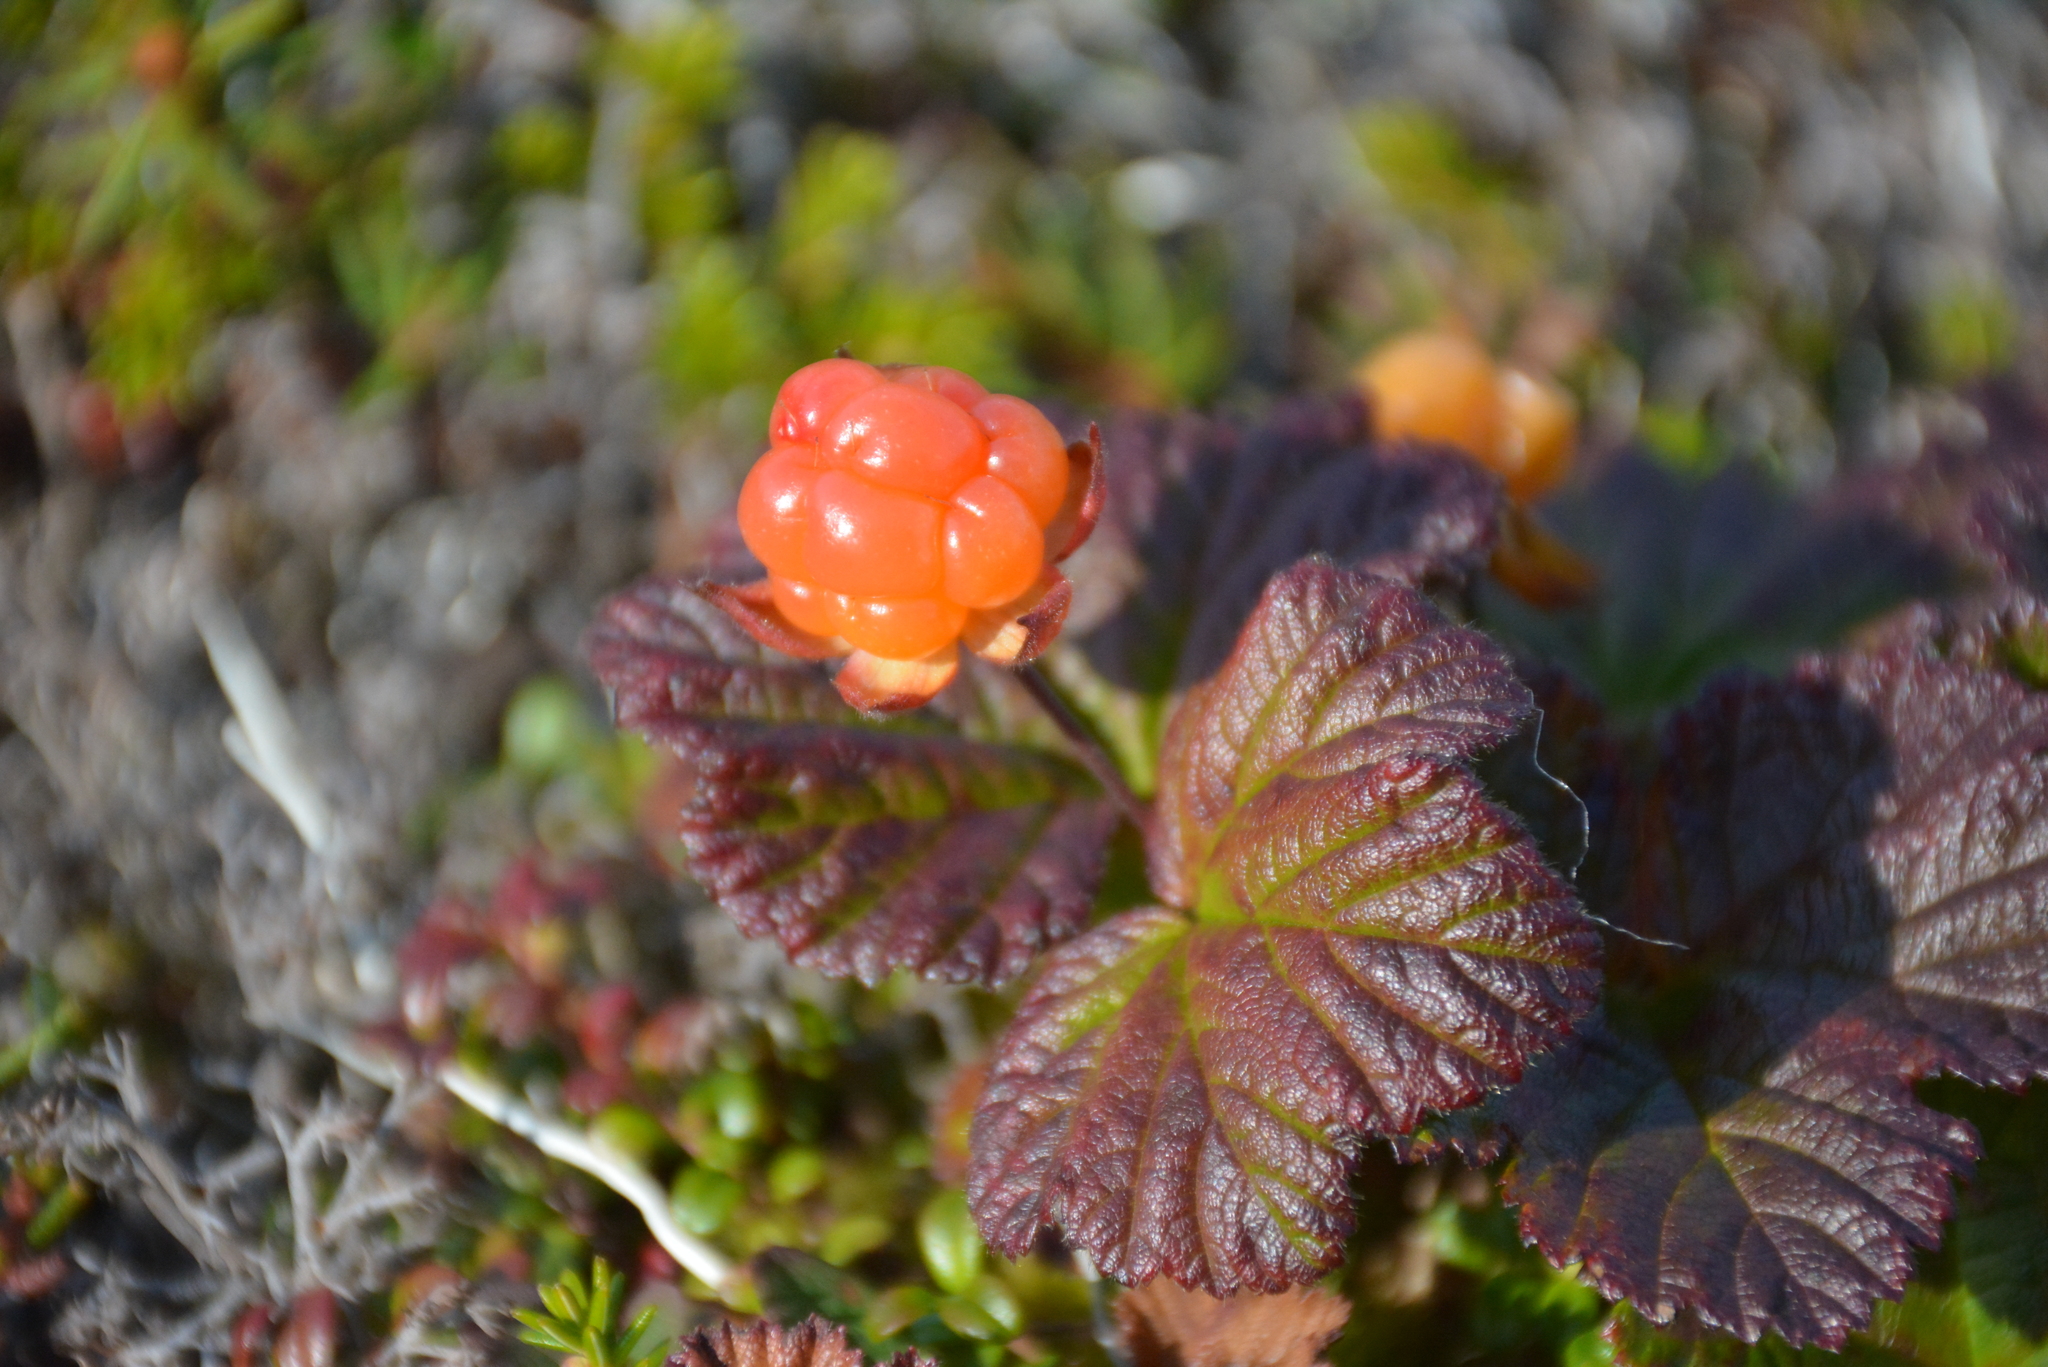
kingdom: Plantae
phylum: Tracheophyta
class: Magnoliopsida
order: Rosales
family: Rosaceae
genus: Rubus
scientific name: Rubus chamaemorus
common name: Cloudberry
